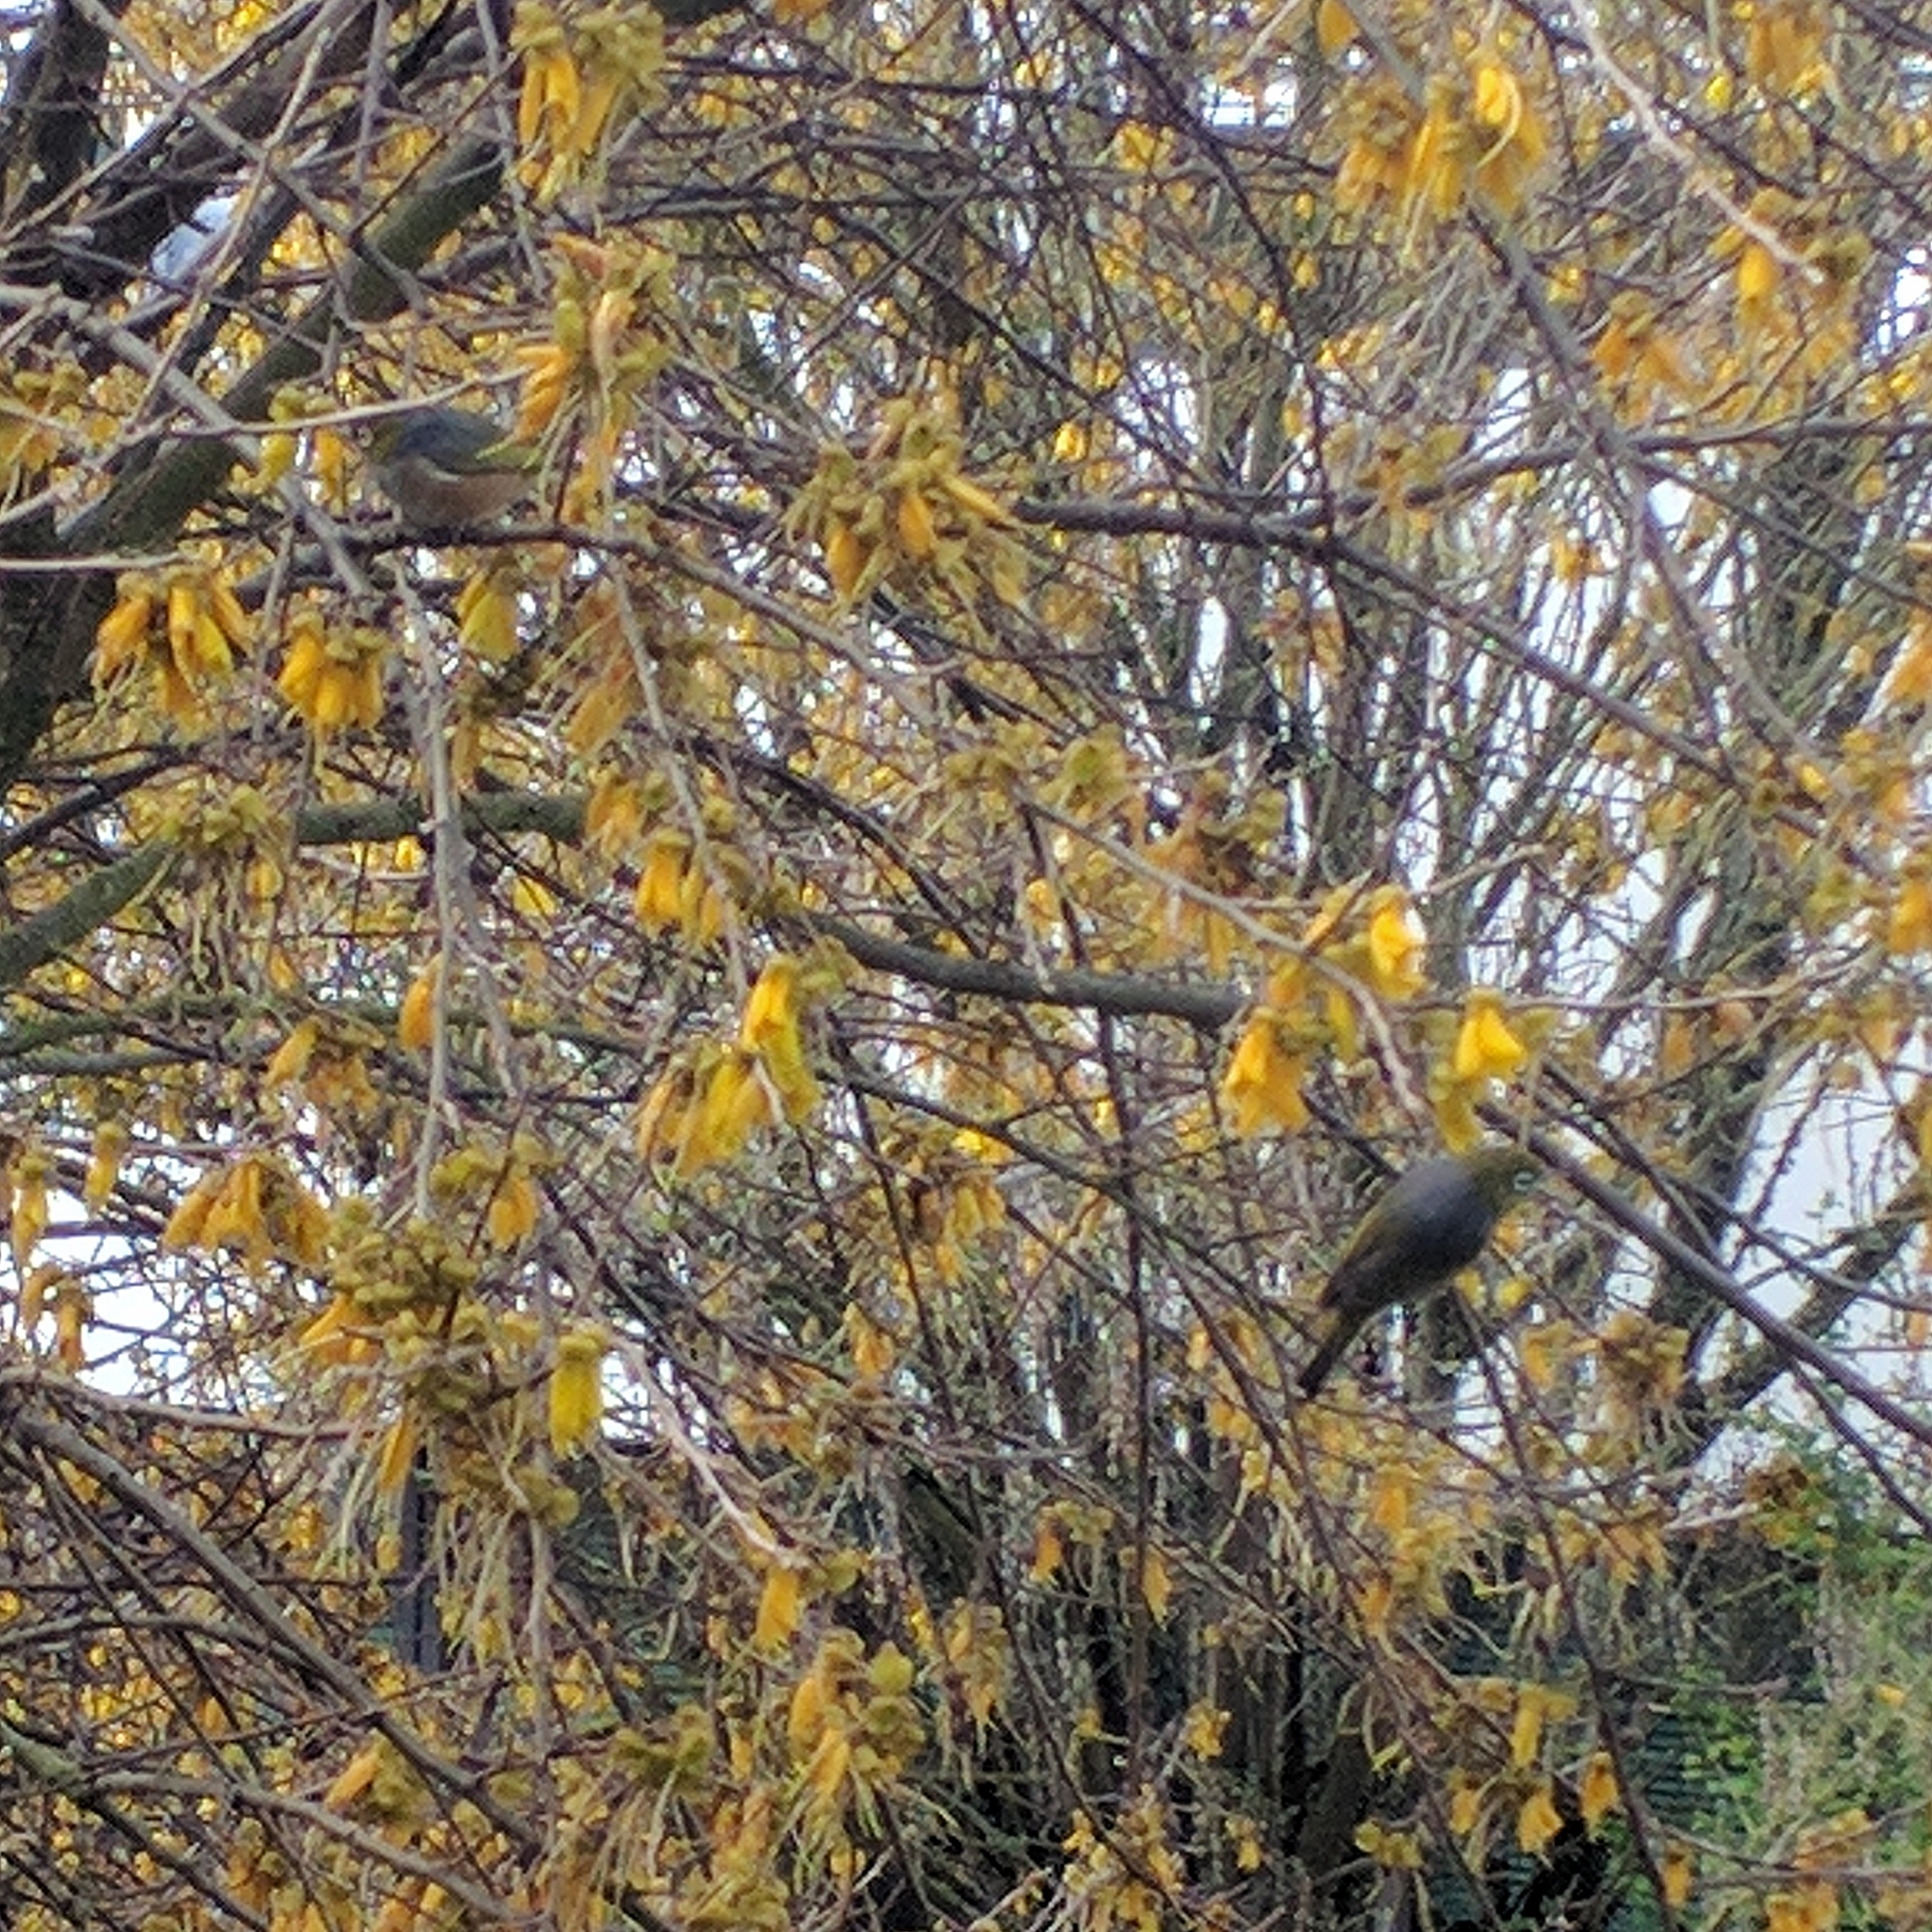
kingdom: Animalia
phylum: Chordata
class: Aves
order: Passeriformes
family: Zosteropidae
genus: Zosterops
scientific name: Zosterops lateralis
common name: Silvereye
